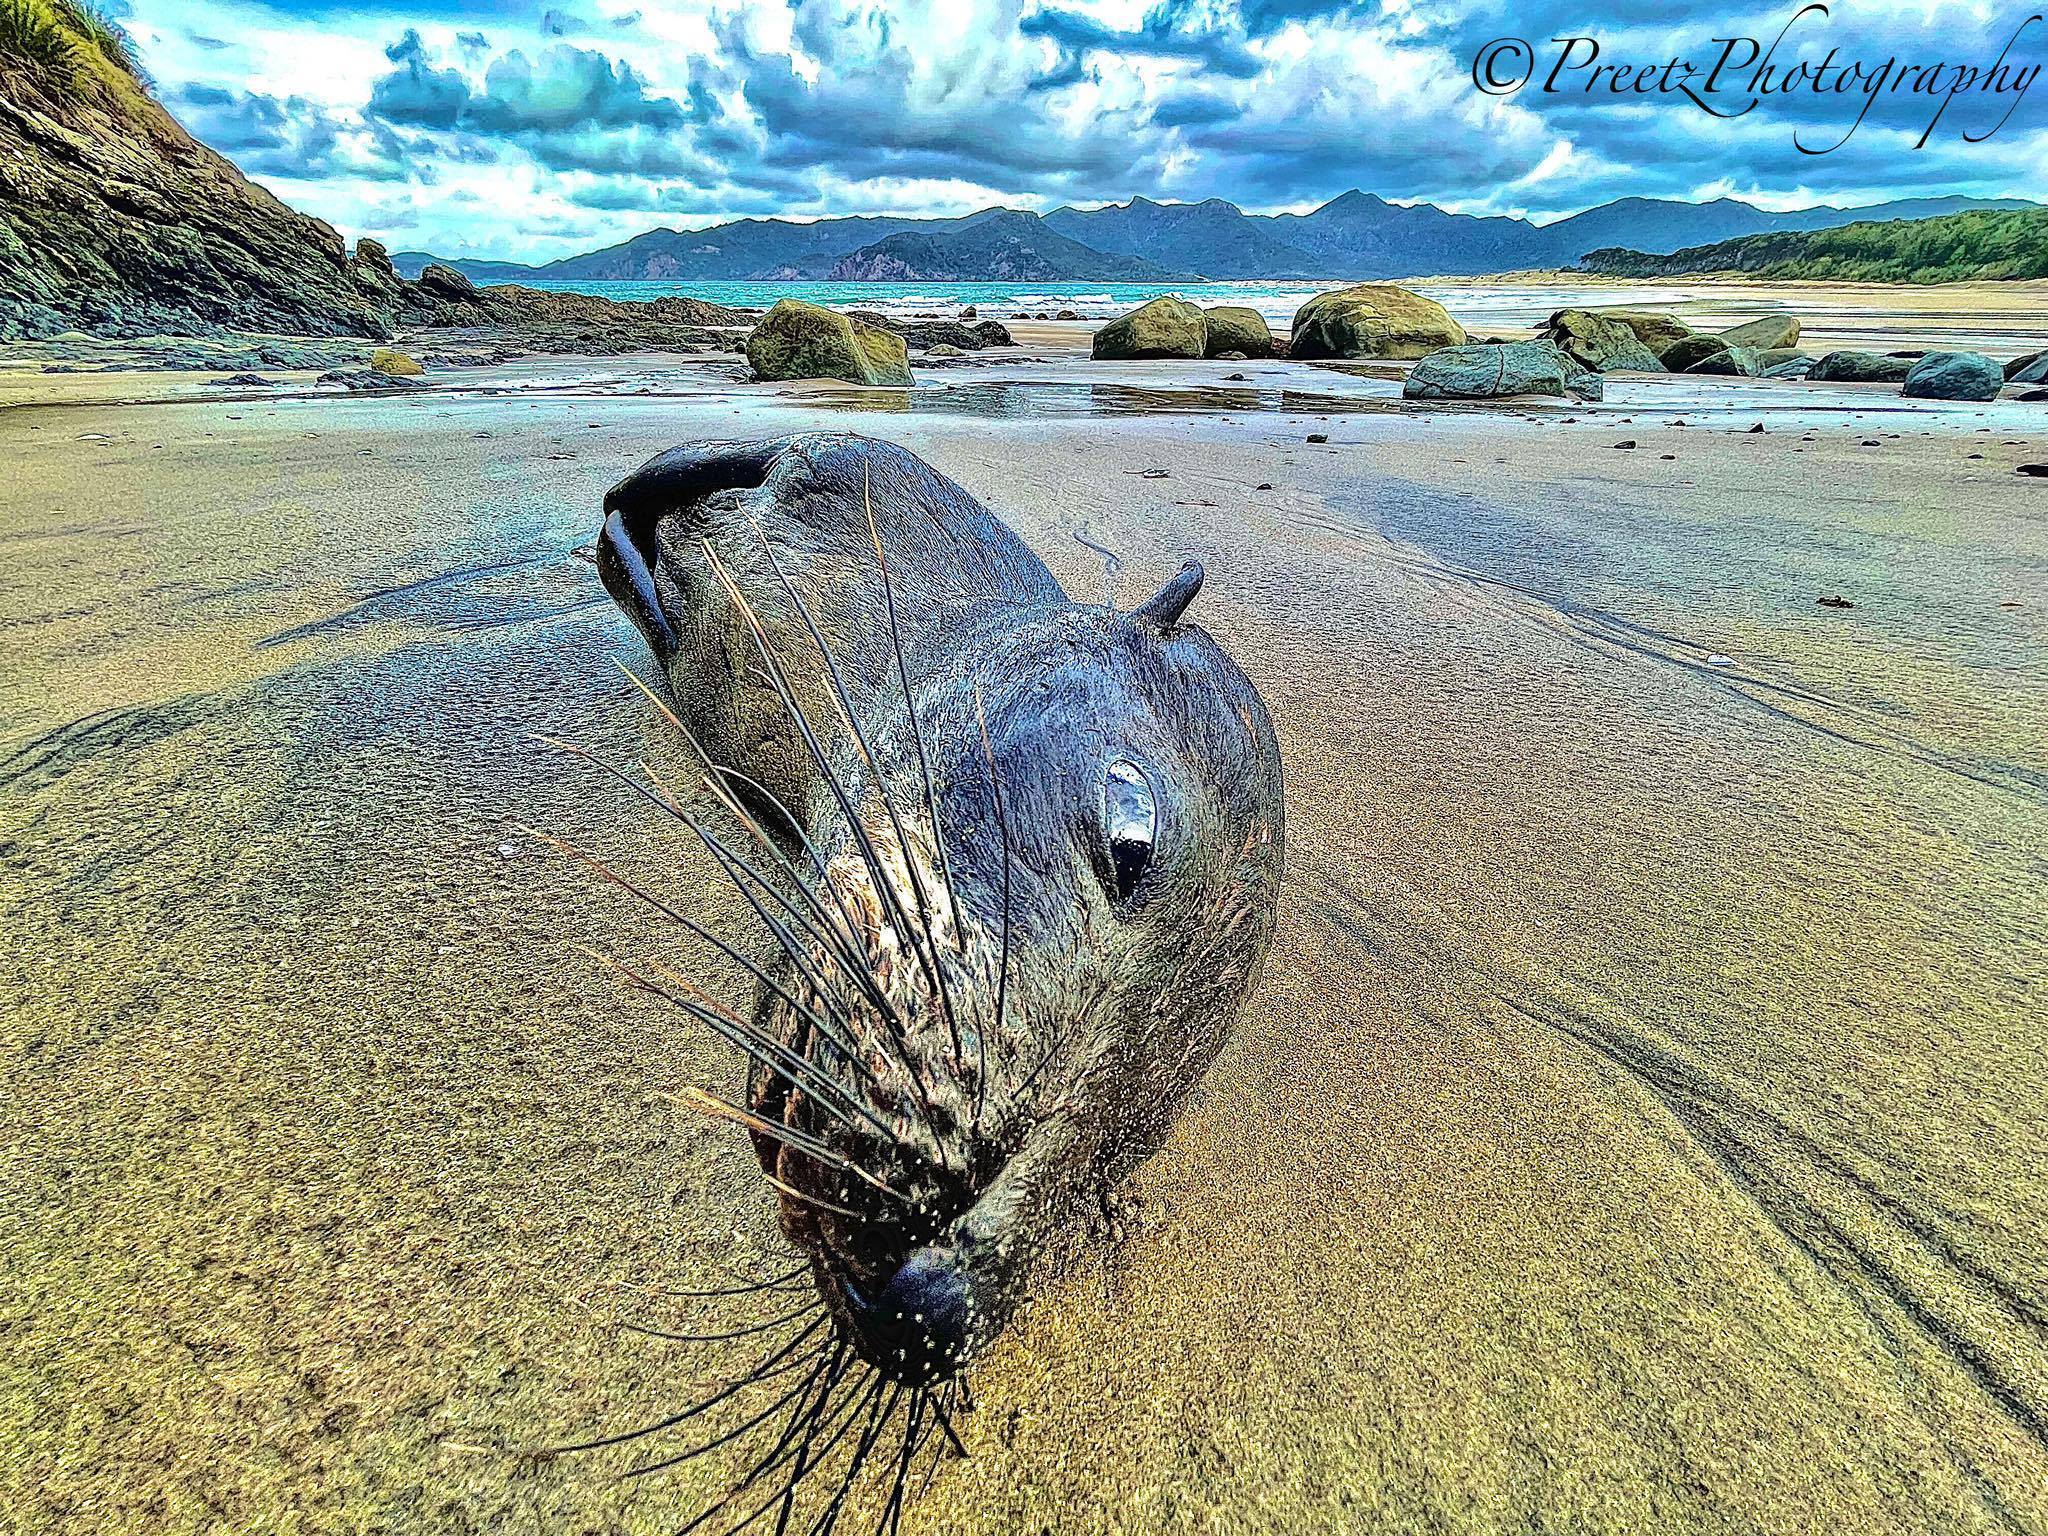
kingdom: Animalia
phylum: Chordata
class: Mammalia
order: Carnivora
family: Otariidae
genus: Arctocephalus
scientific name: Arctocephalus forsteri
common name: New zealand fur seal
